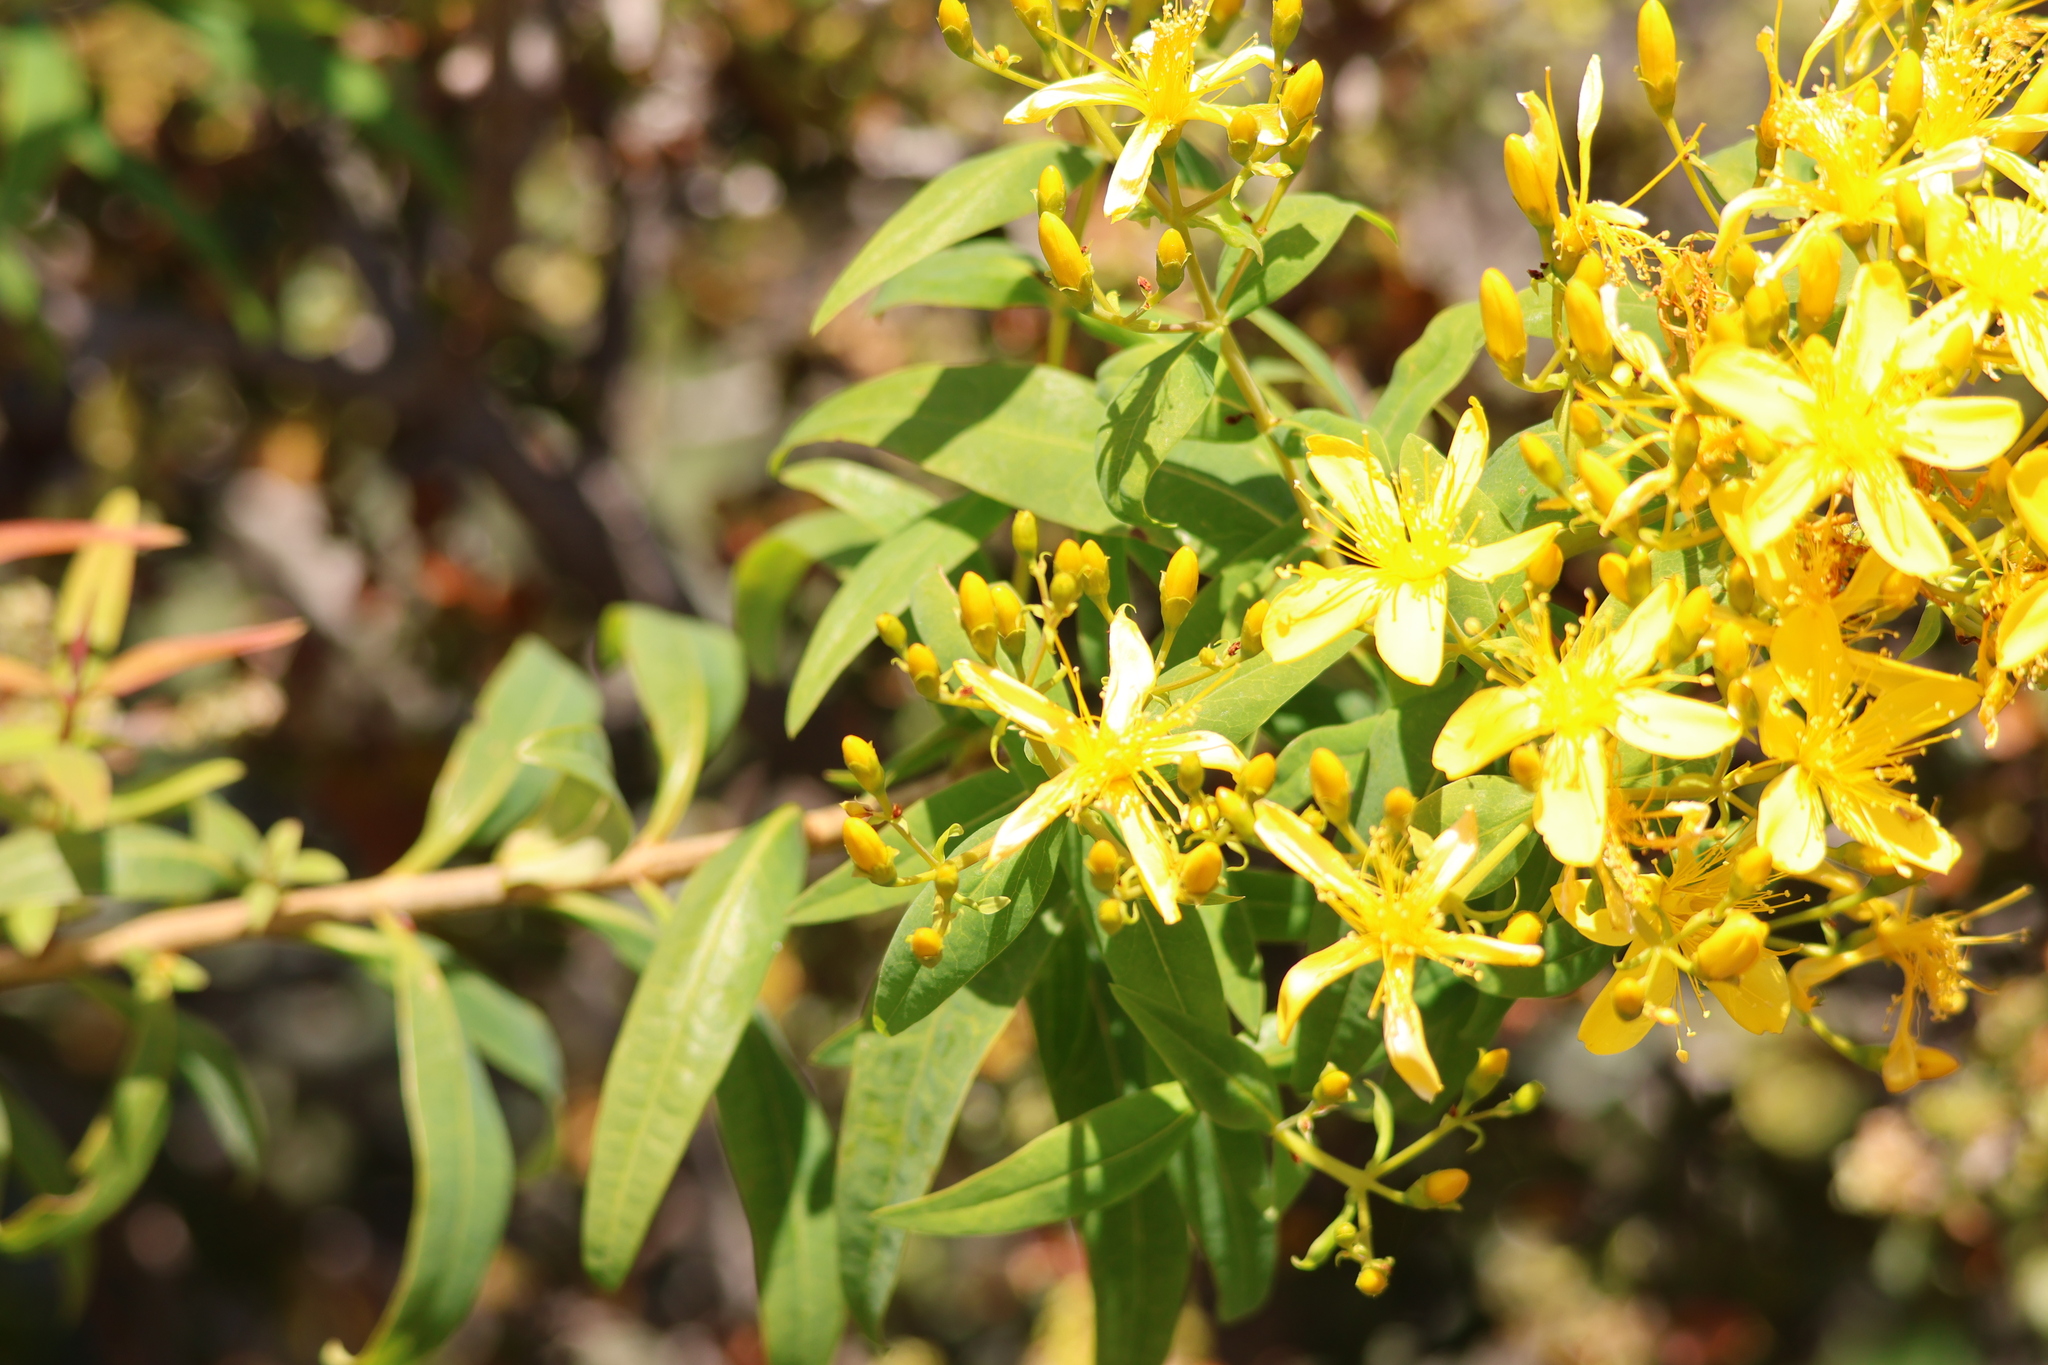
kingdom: Plantae
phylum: Tracheophyta
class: Magnoliopsida
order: Malpighiales
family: Hypericaceae
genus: Hypericum
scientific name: Hypericum canariense
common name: Canary island st. johnswort
